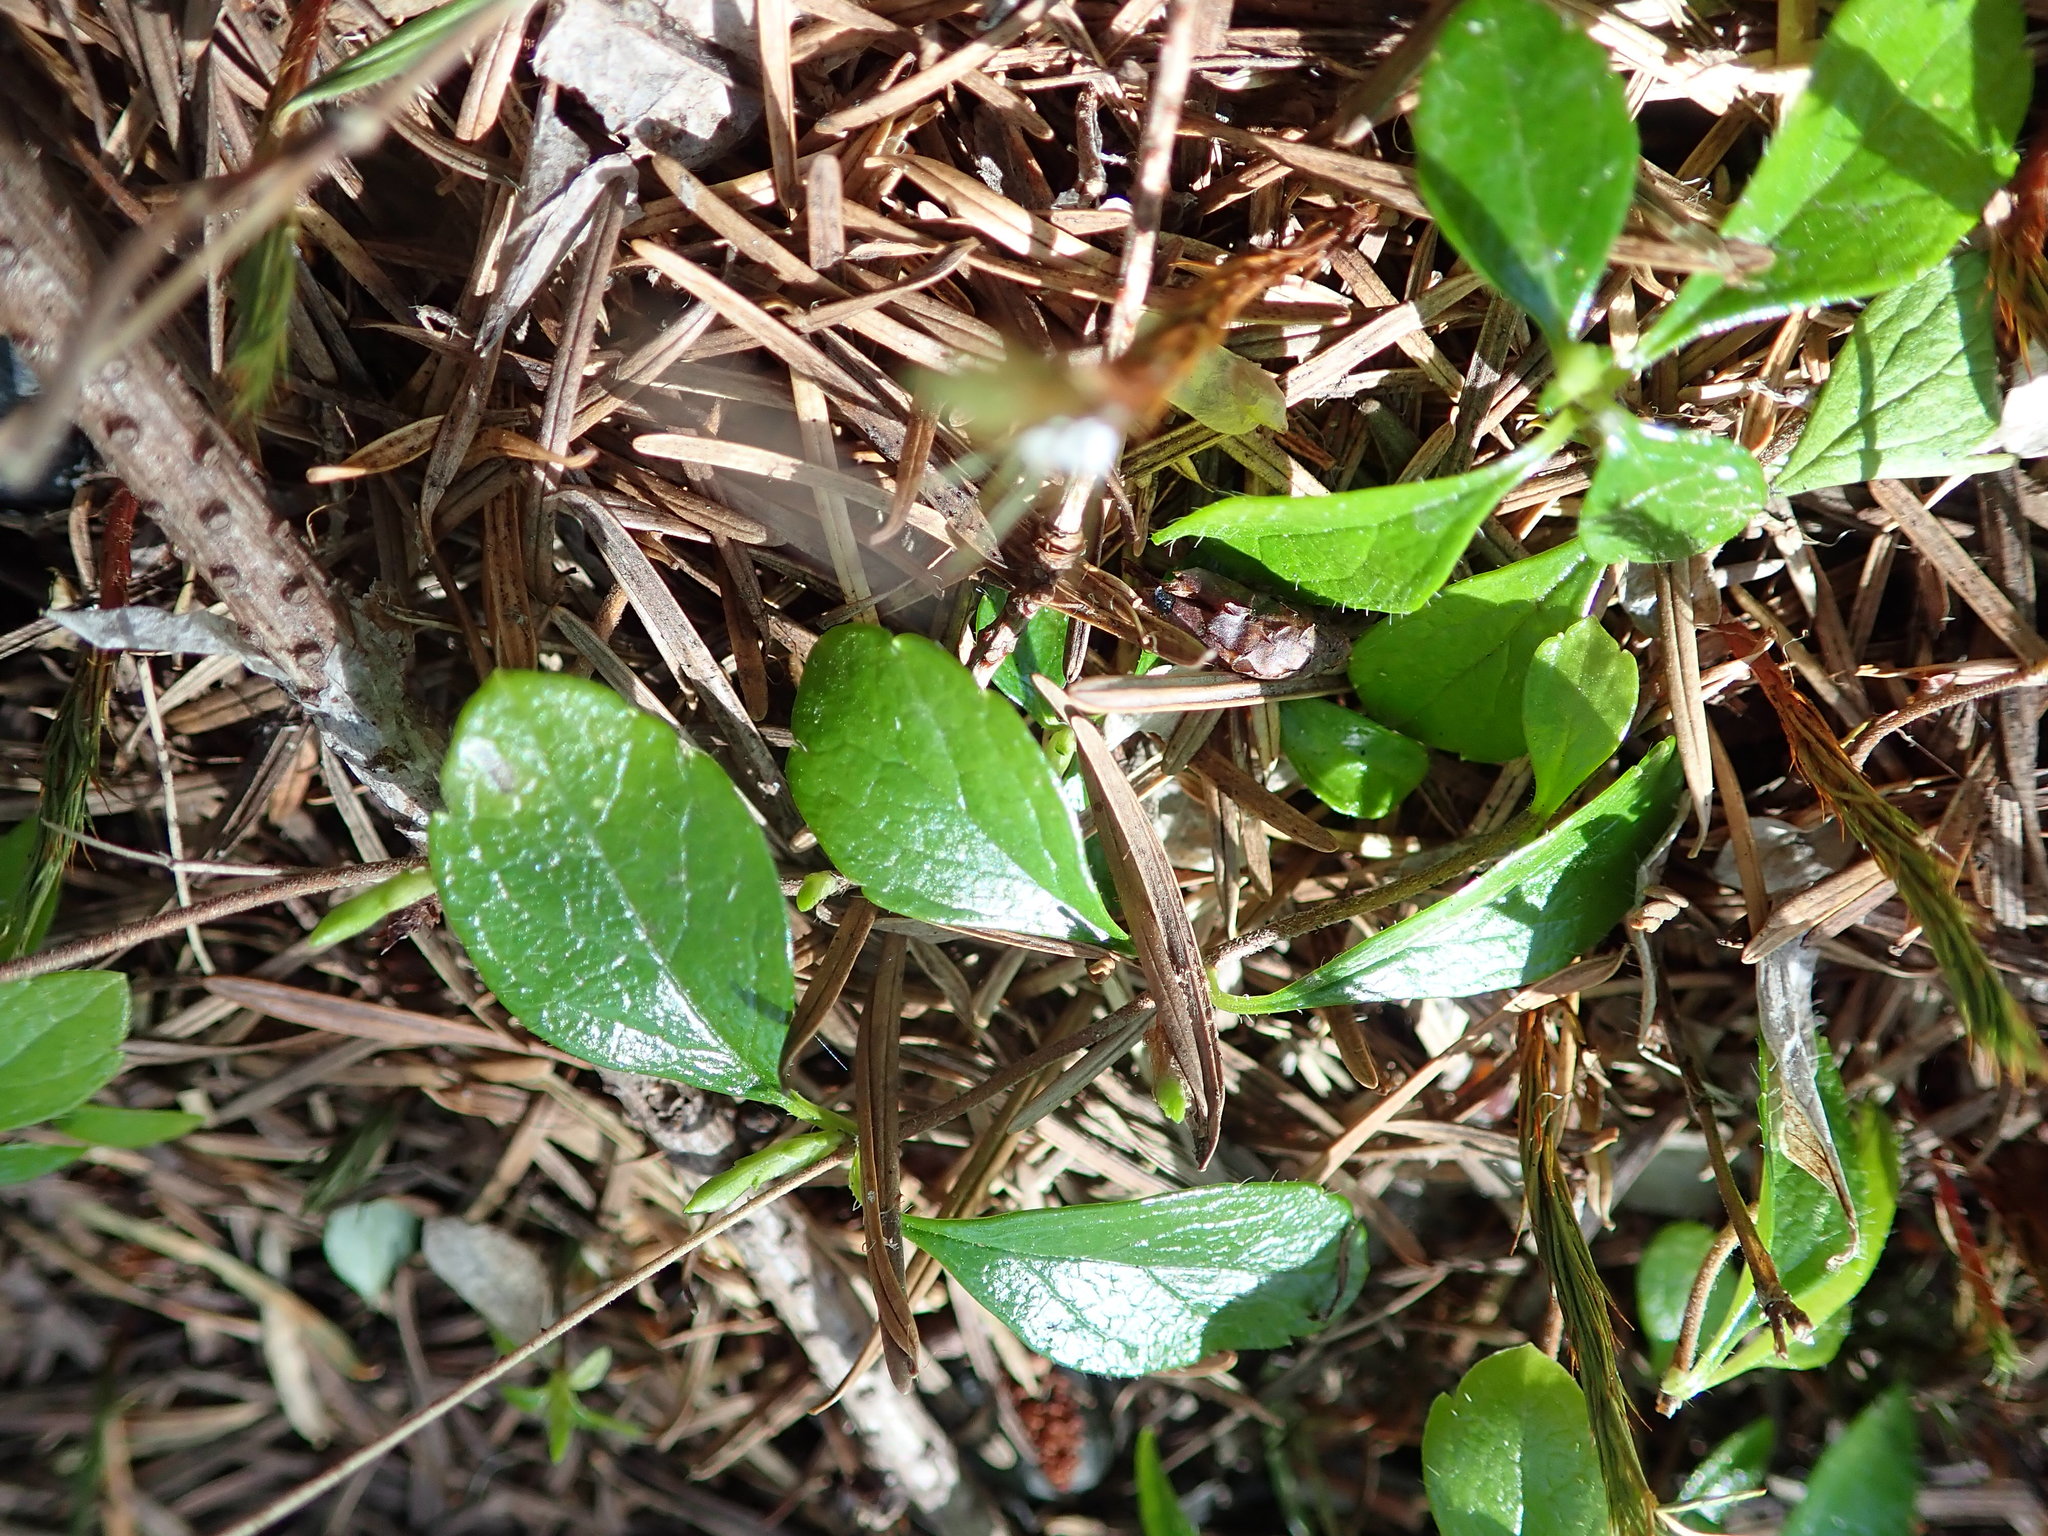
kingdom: Plantae
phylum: Tracheophyta
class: Magnoliopsida
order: Dipsacales
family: Caprifoliaceae
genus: Linnaea
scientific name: Linnaea borealis
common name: Twinflower
